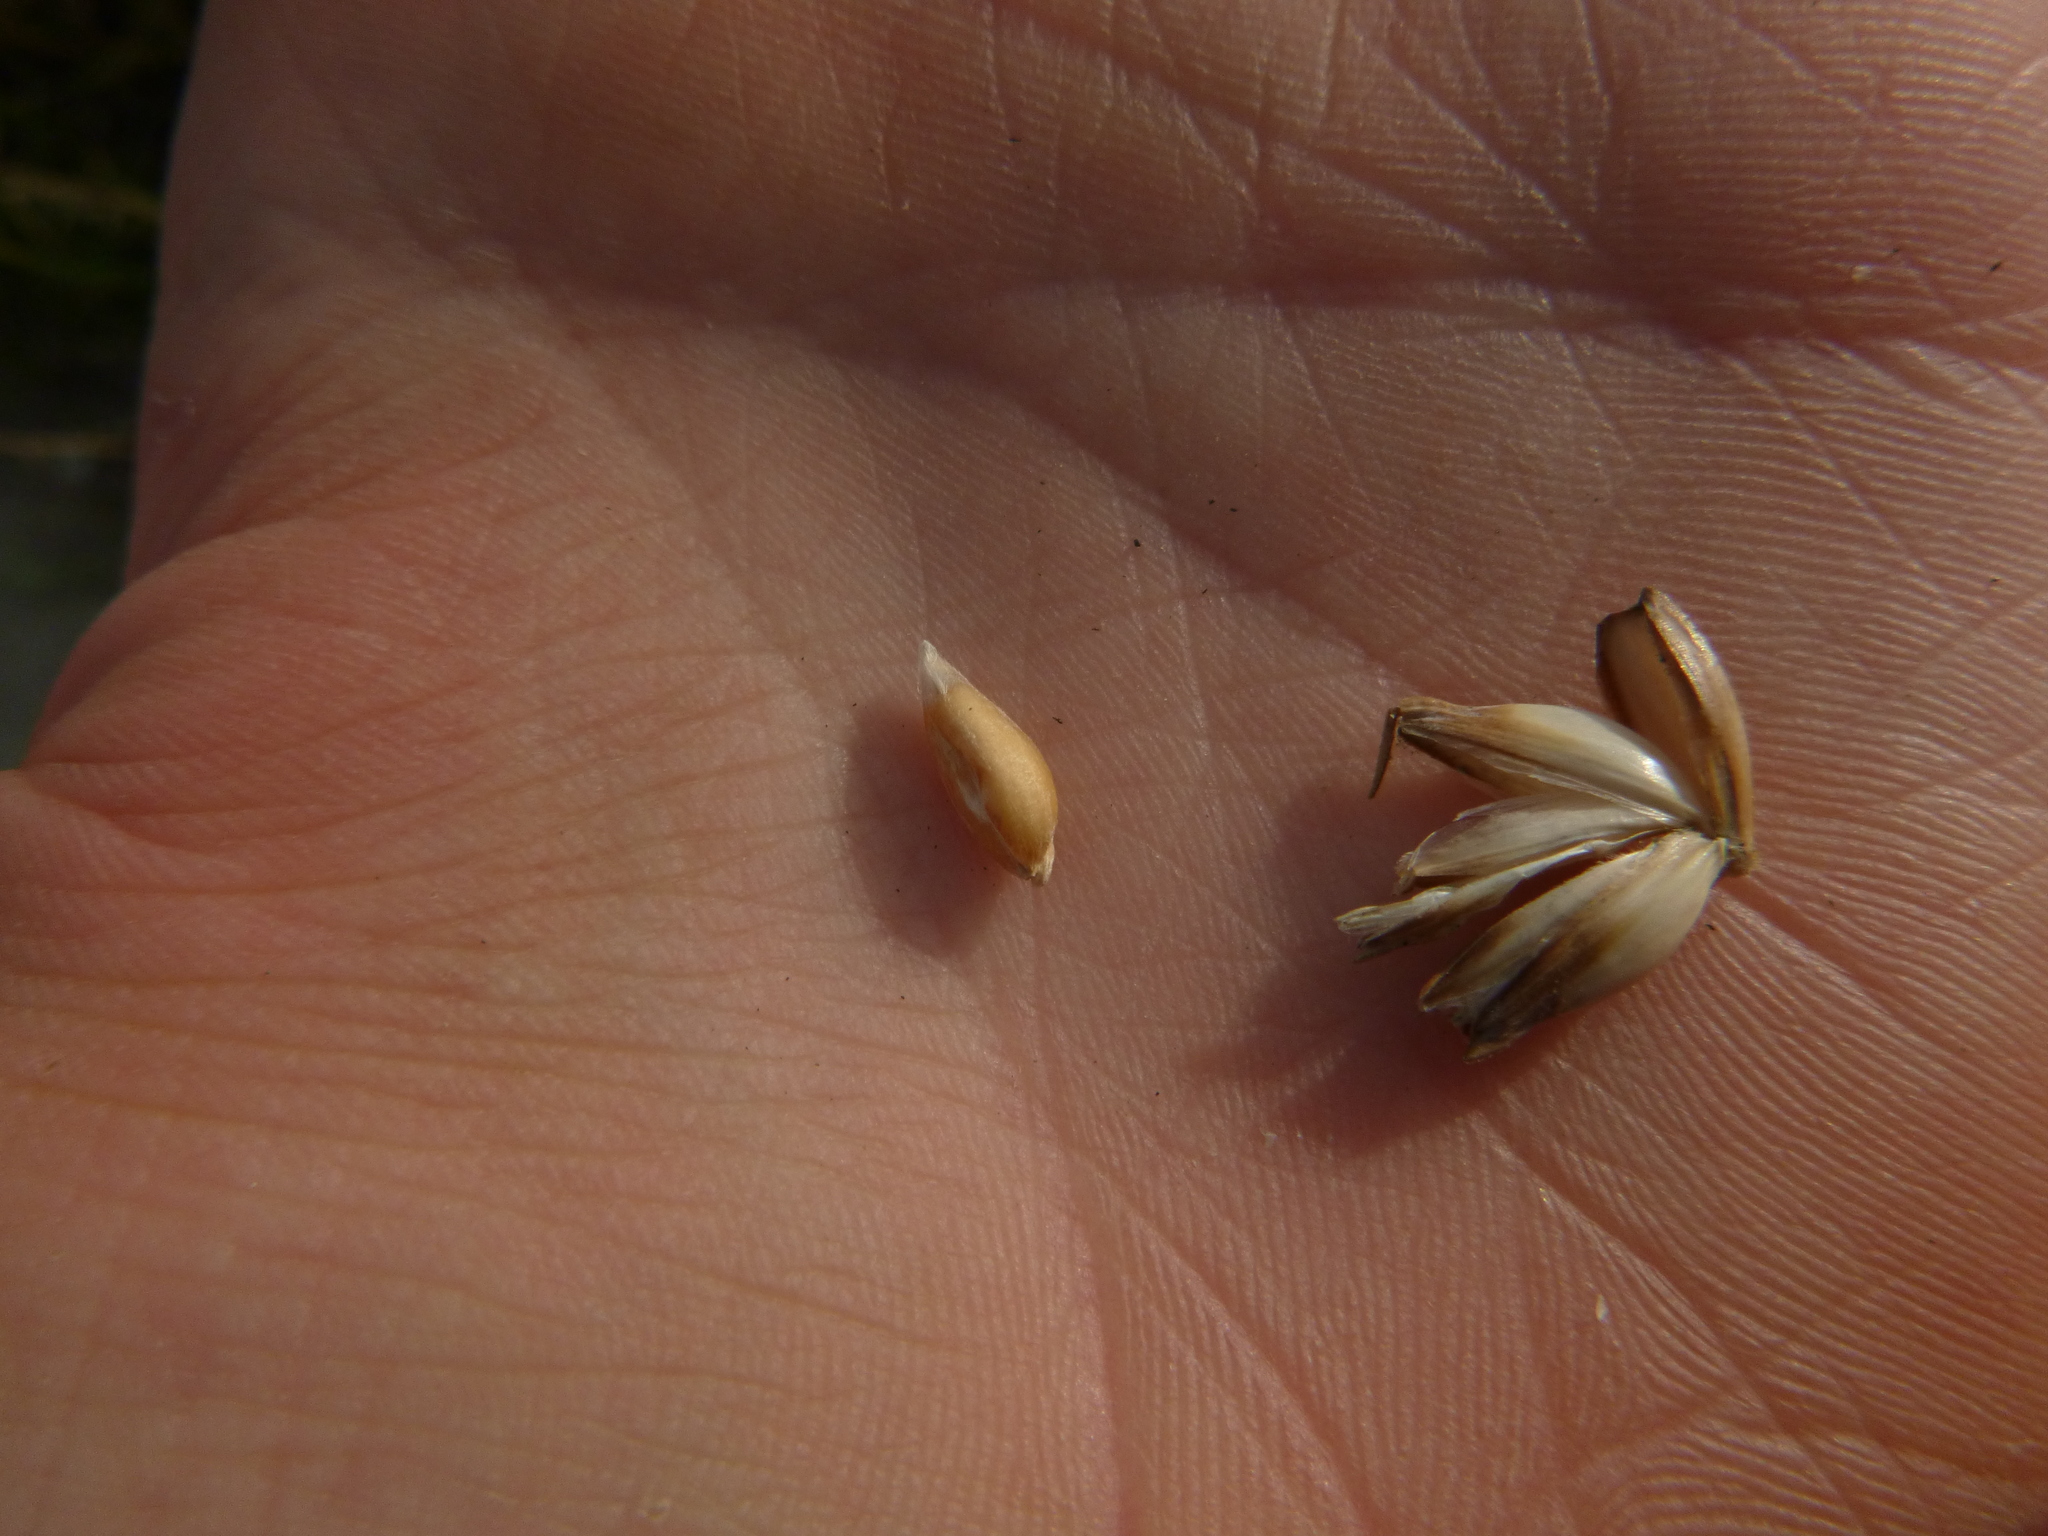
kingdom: Plantae
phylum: Tracheophyta
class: Liliopsida
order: Poales
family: Poaceae
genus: Triticum
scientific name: Triticum aestivum
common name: Common wheat
